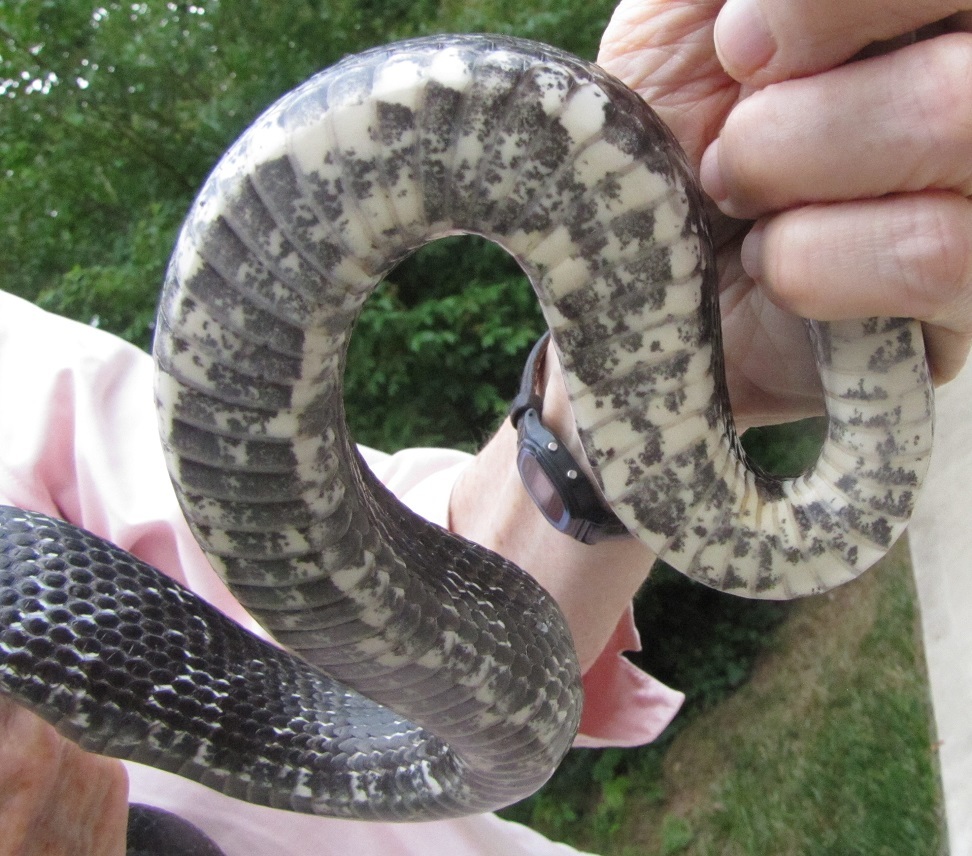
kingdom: Animalia
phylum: Chordata
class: Squamata
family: Colubridae
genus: Pantherophis
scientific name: Pantherophis alleghaniensis
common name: Eastern rat snake
